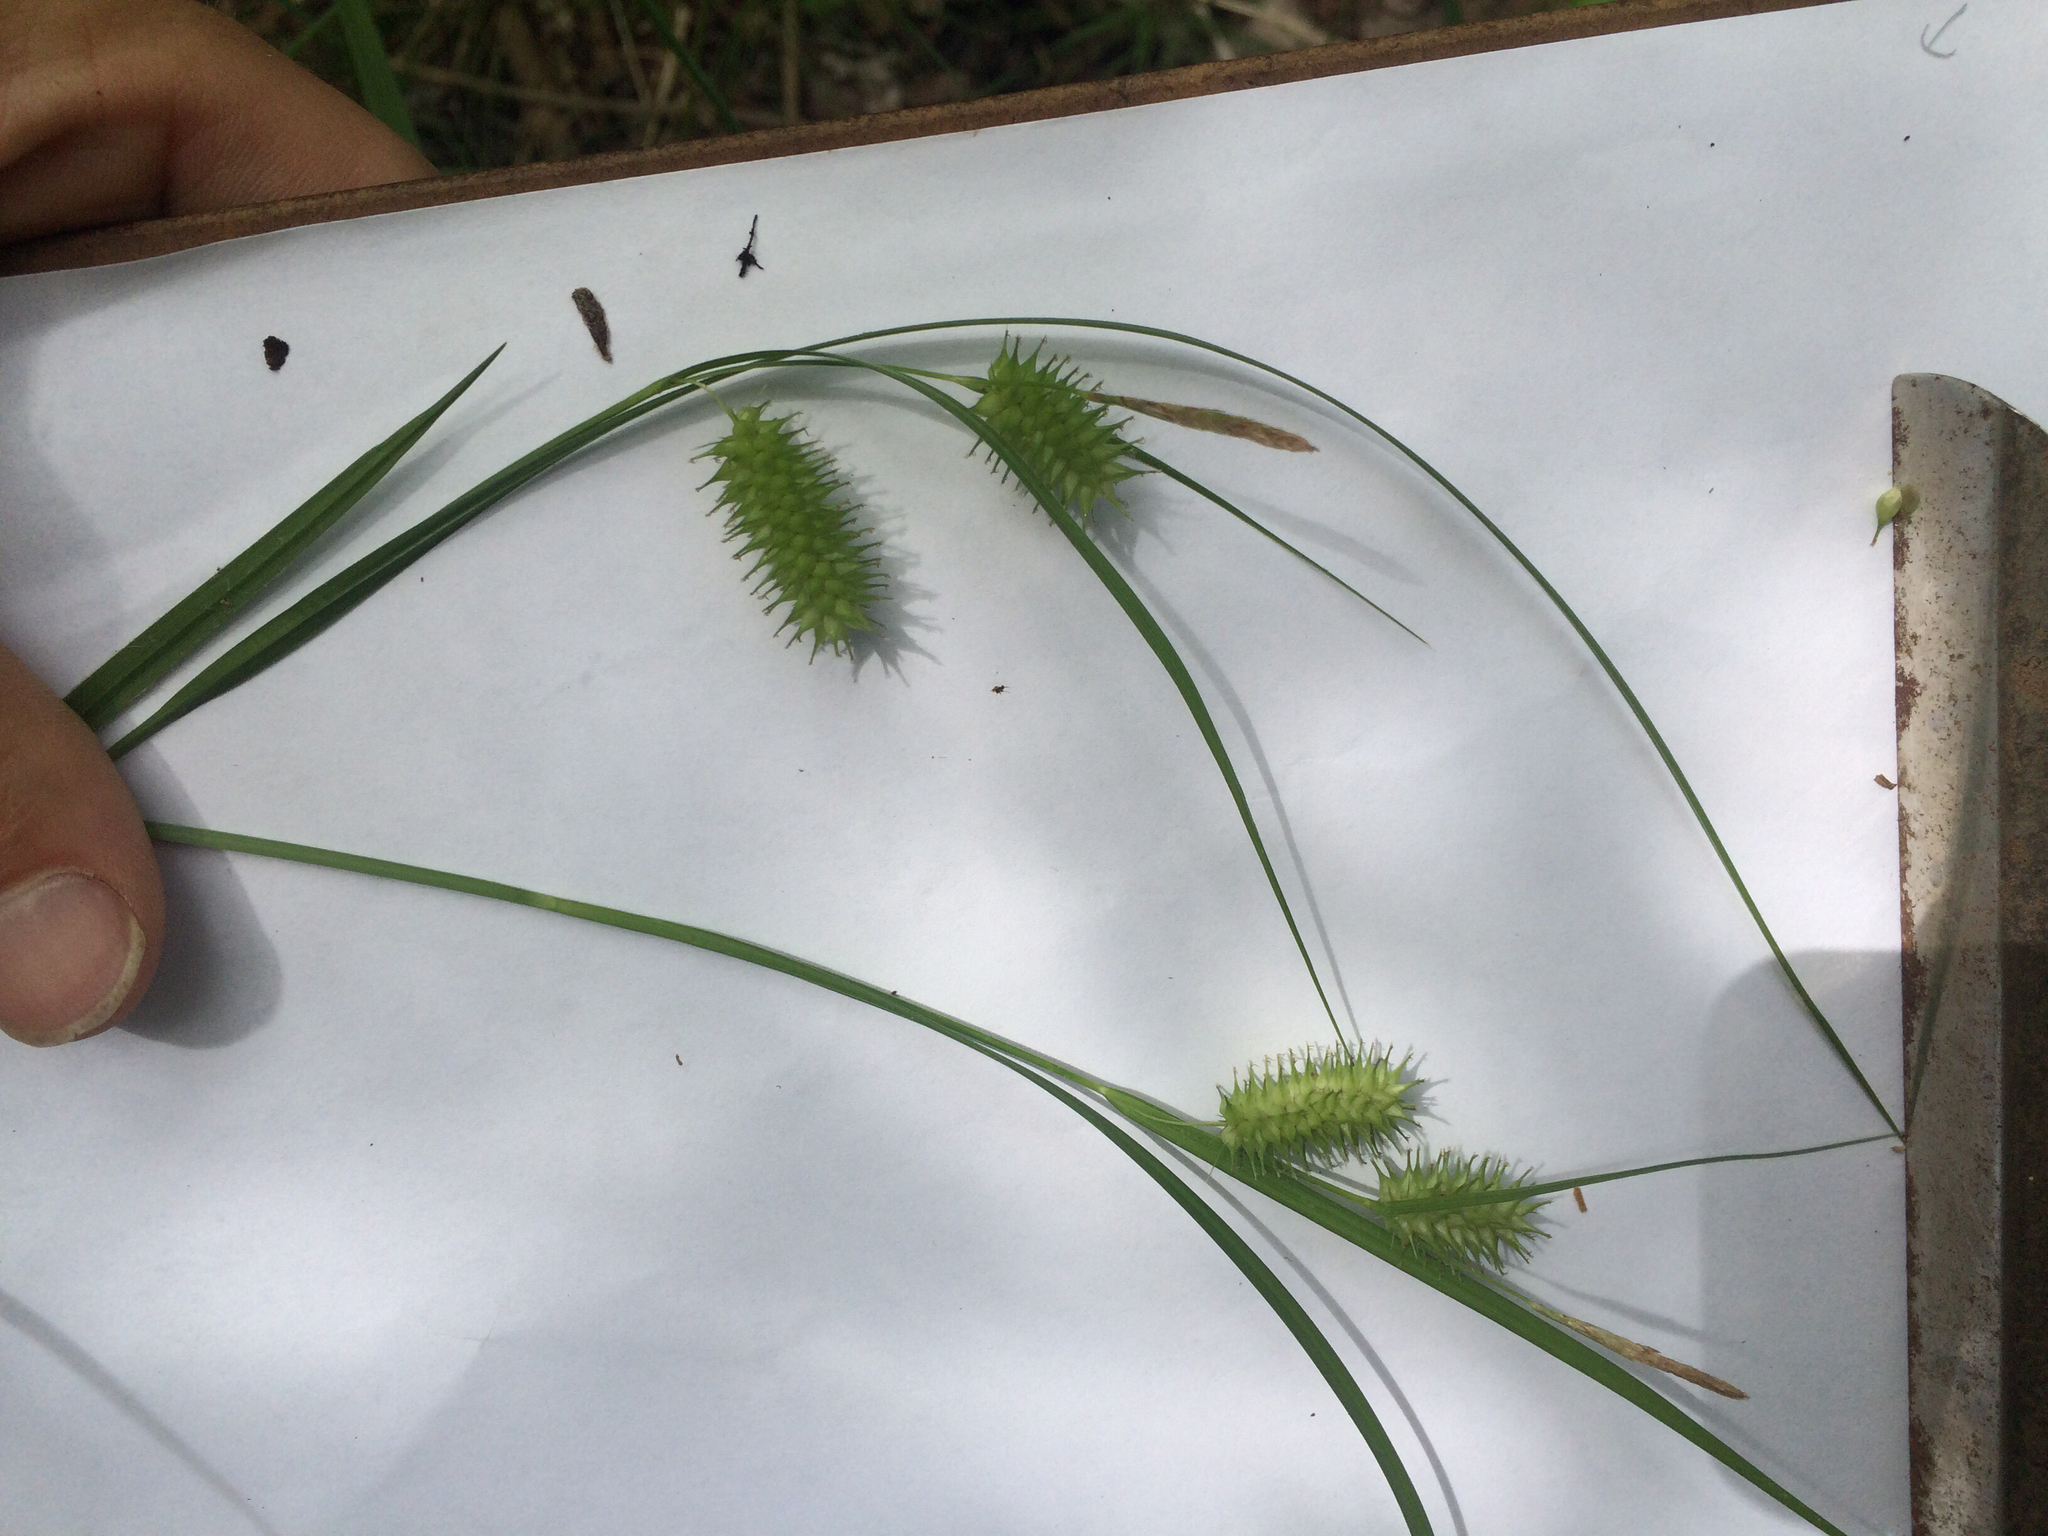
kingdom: Plantae
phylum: Tracheophyta
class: Liliopsida
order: Poales
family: Cyperaceae
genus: Carex
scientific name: Carex hystericina
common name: Bottlebrush sedge
